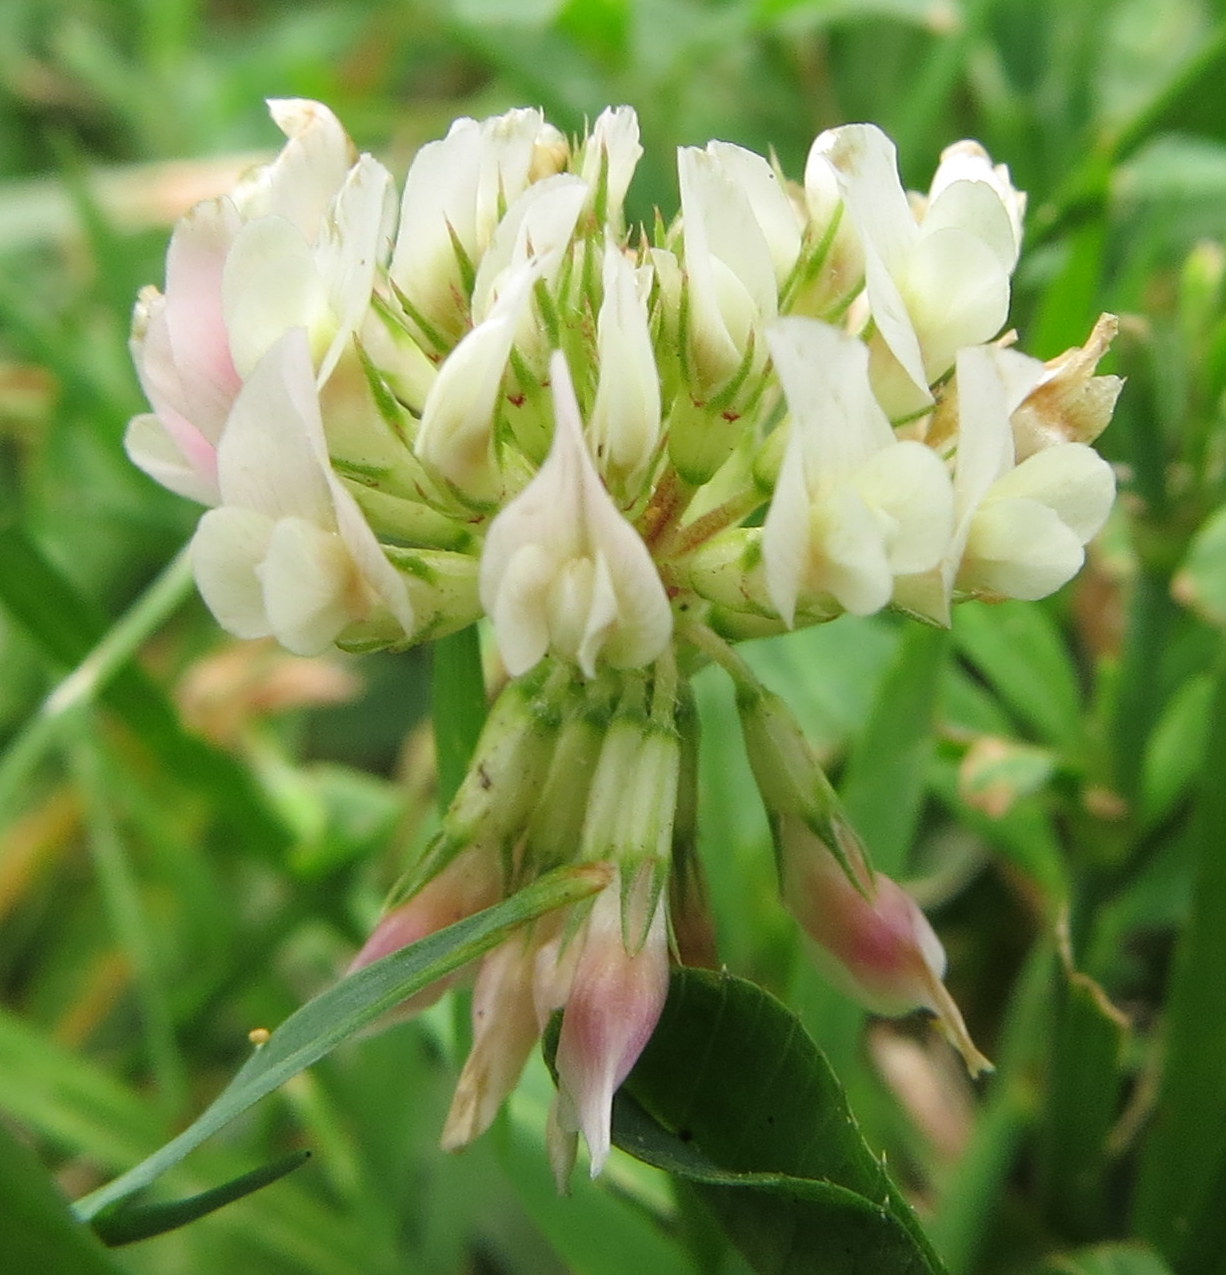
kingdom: Plantae
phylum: Tracheophyta
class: Magnoliopsida
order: Fabales
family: Fabaceae
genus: Trifolium
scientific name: Trifolium repens
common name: White clover
